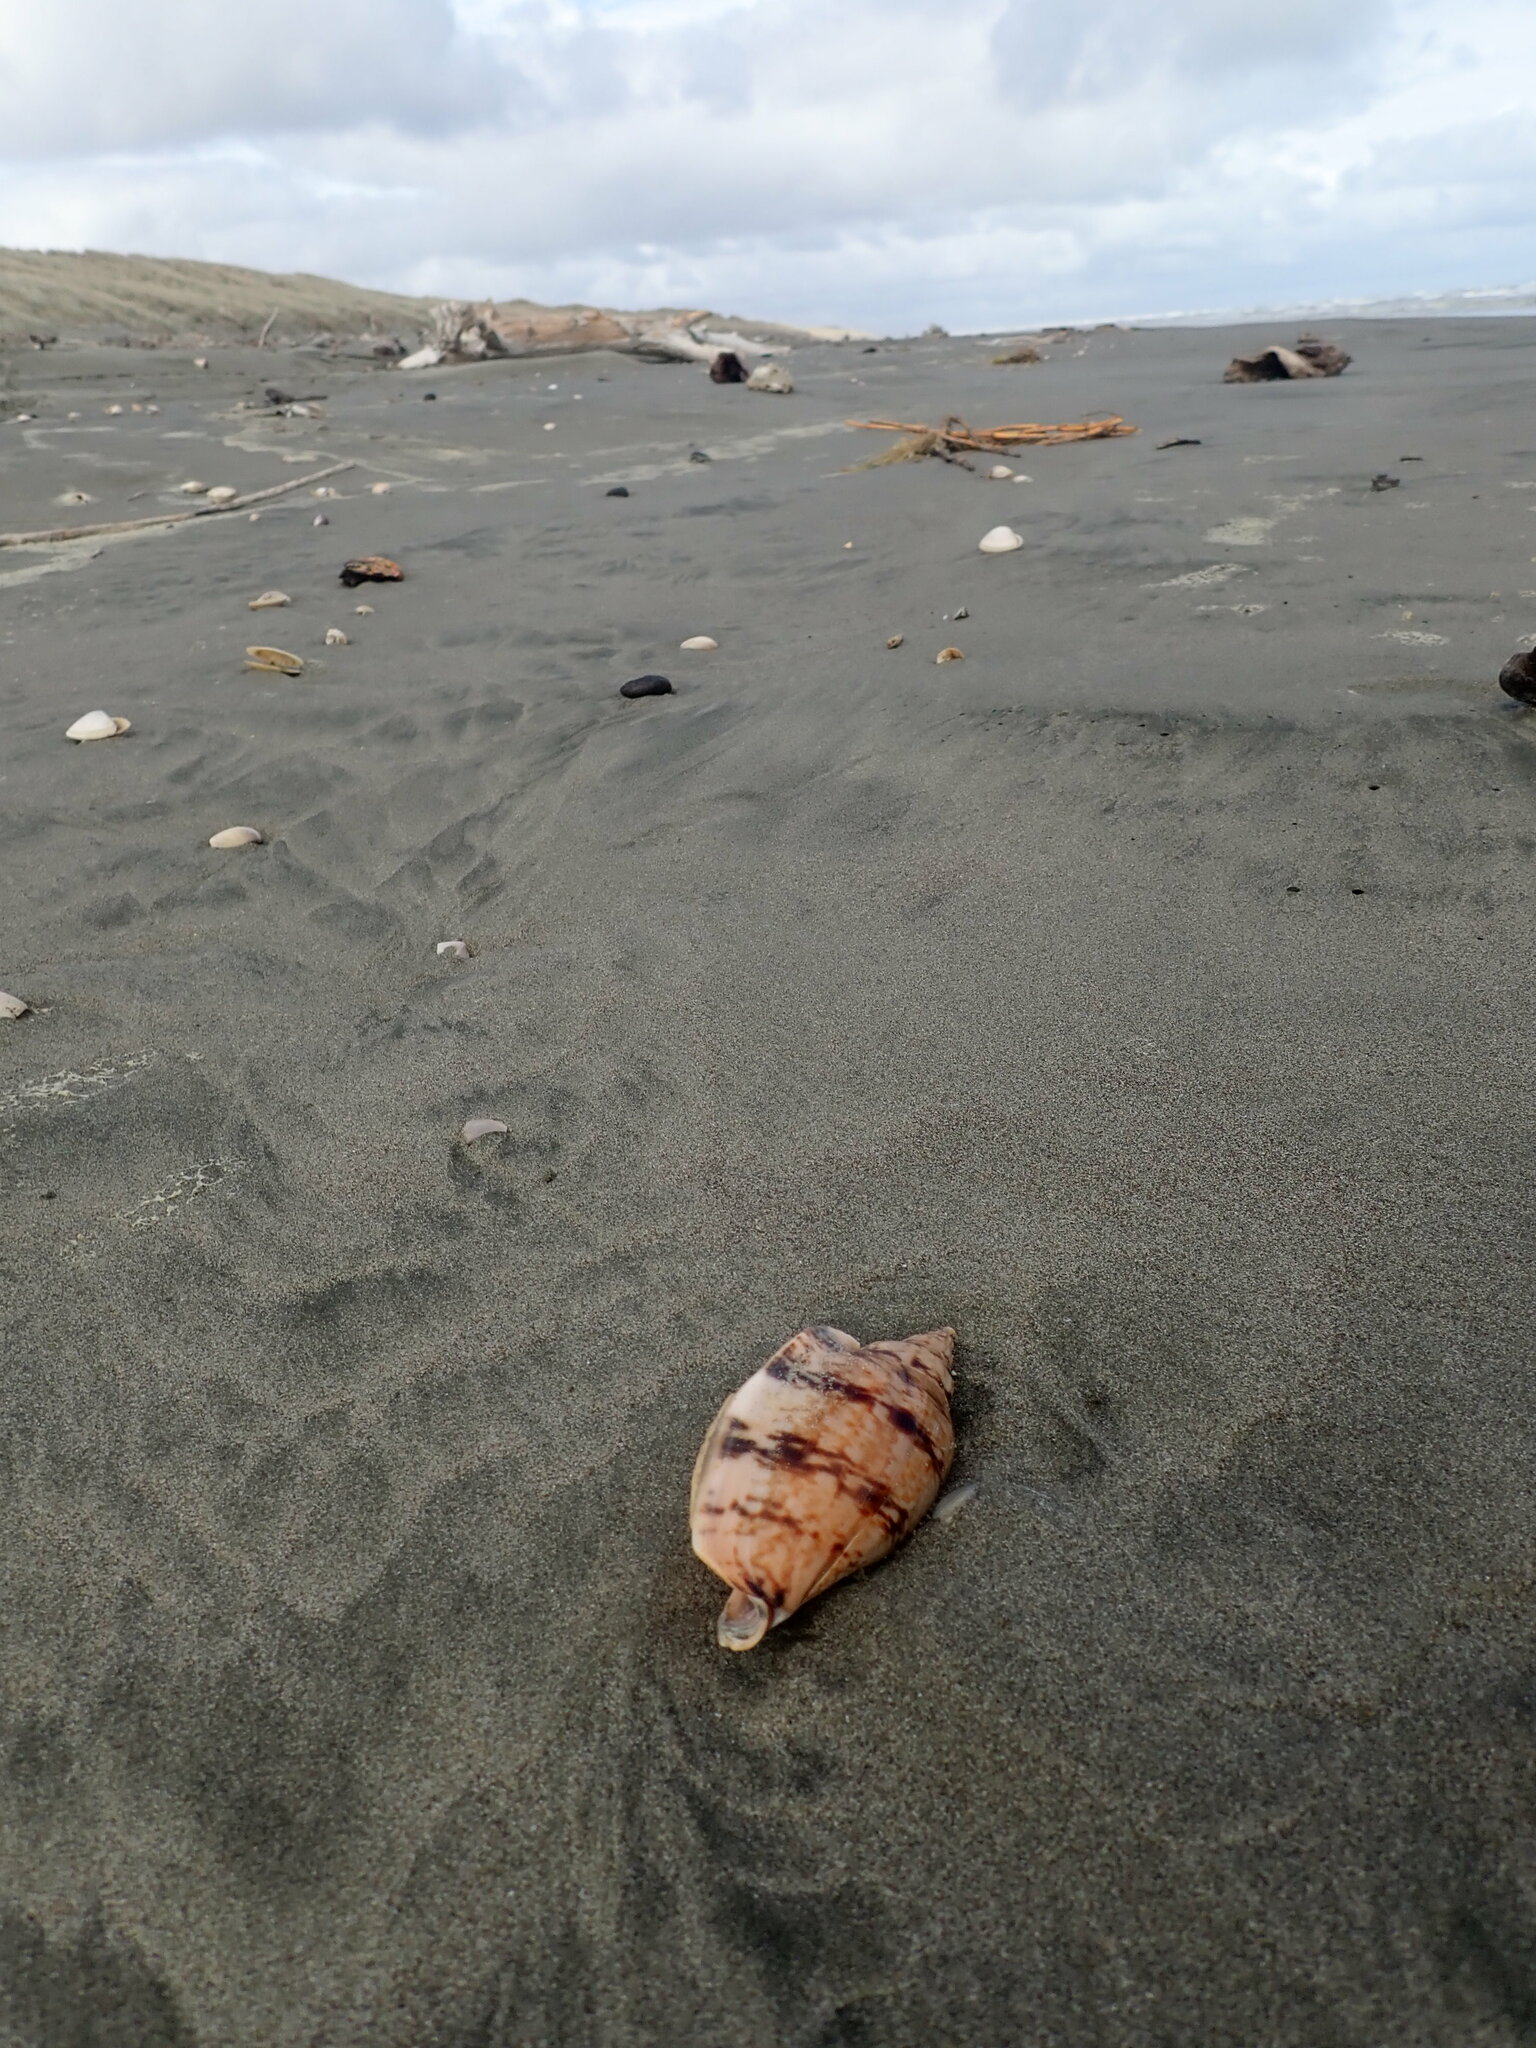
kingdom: Animalia
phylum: Mollusca
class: Gastropoda
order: Neogastropoda
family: Volutidae
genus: Alcithoe
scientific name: Alcithoe arabica
